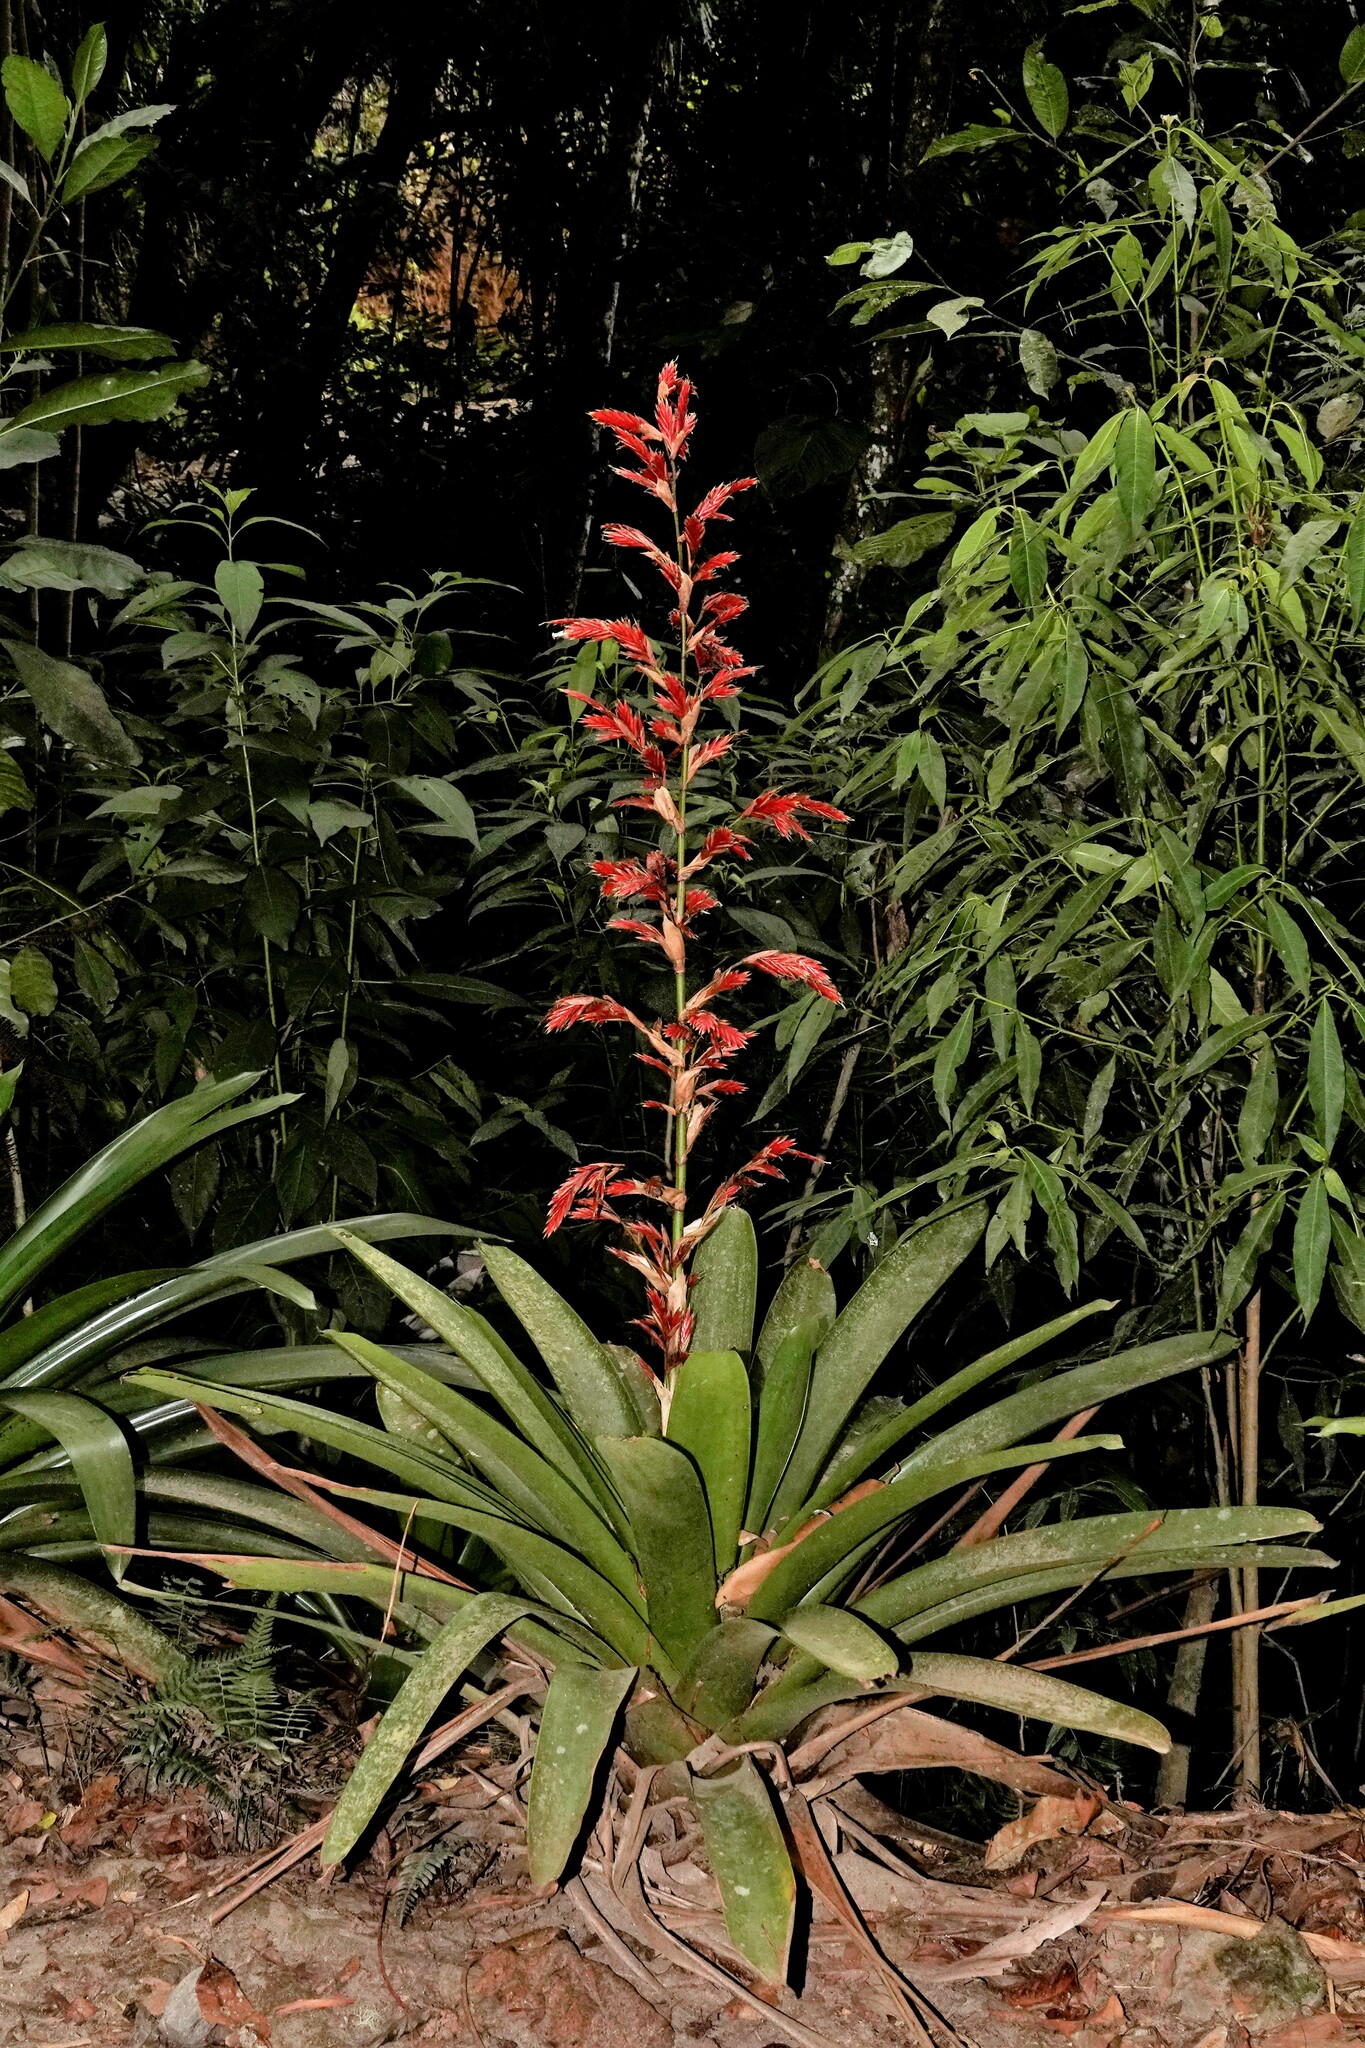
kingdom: Plantae
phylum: Tracheophyta
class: Liliopsida
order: Poales
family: Bromeliaceae
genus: Vriesea
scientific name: Vriesea elata
